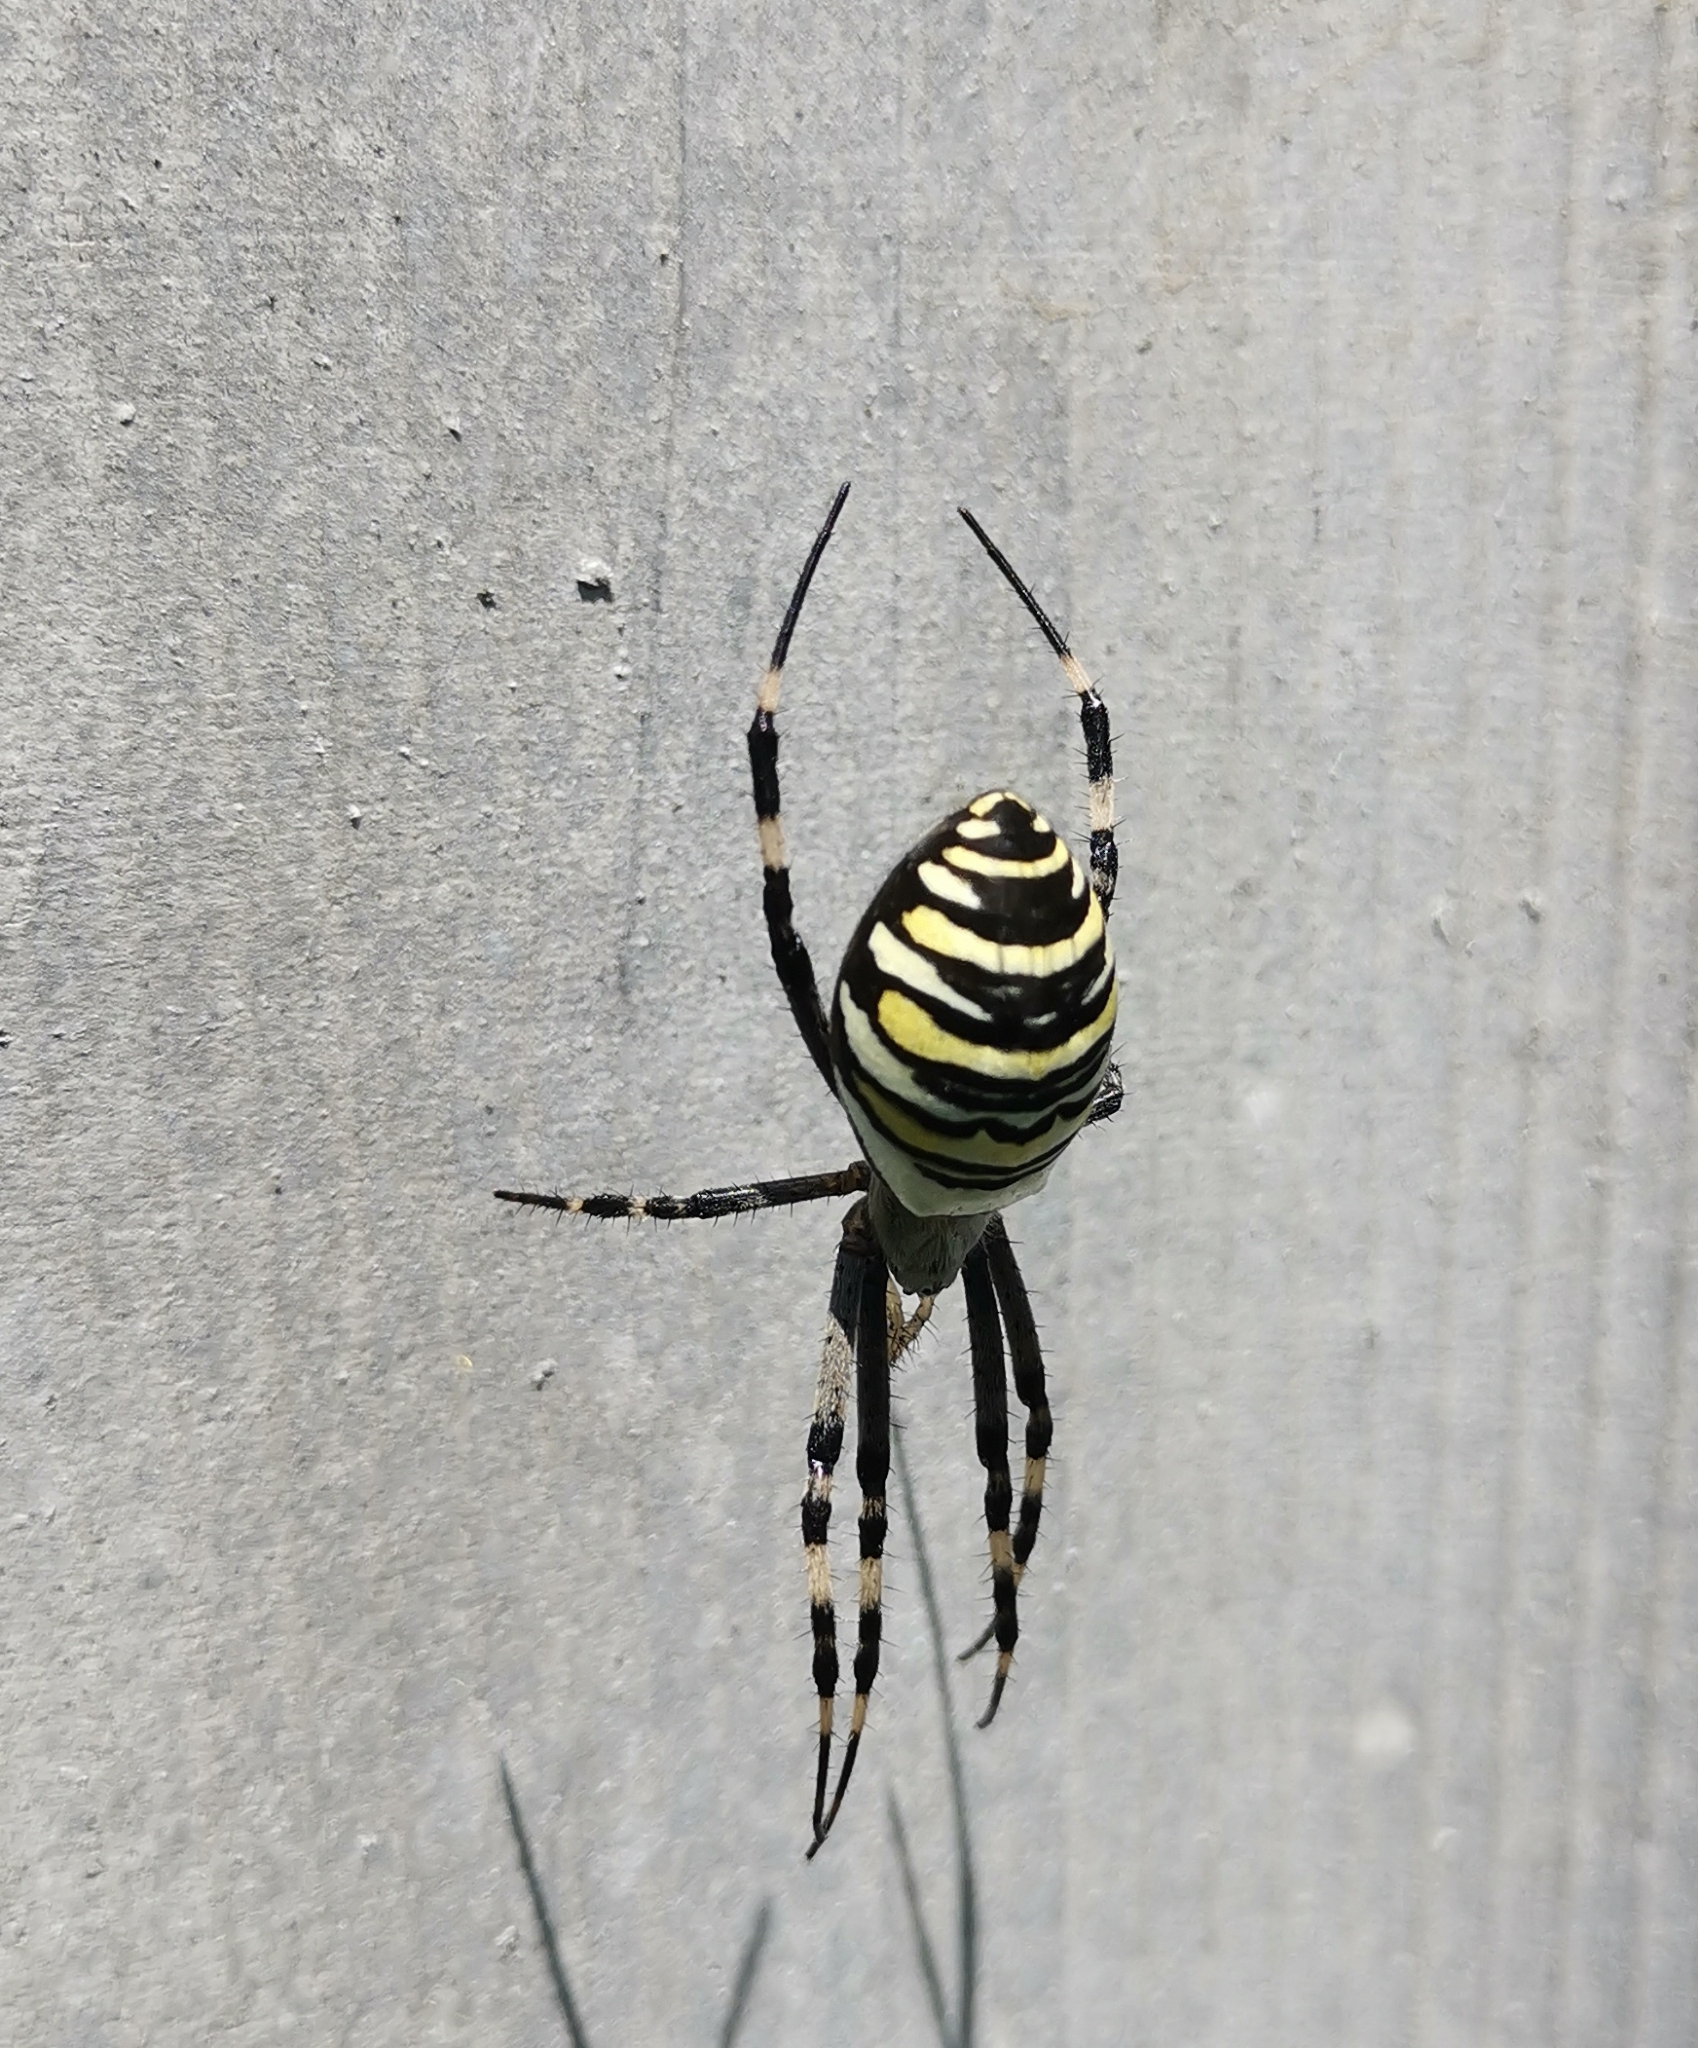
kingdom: Animalia
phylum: Arthropoda
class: Arachnida
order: Araneae
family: Araneidae
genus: Argiope
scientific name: Argiope bruennichi
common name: Wasp spider
